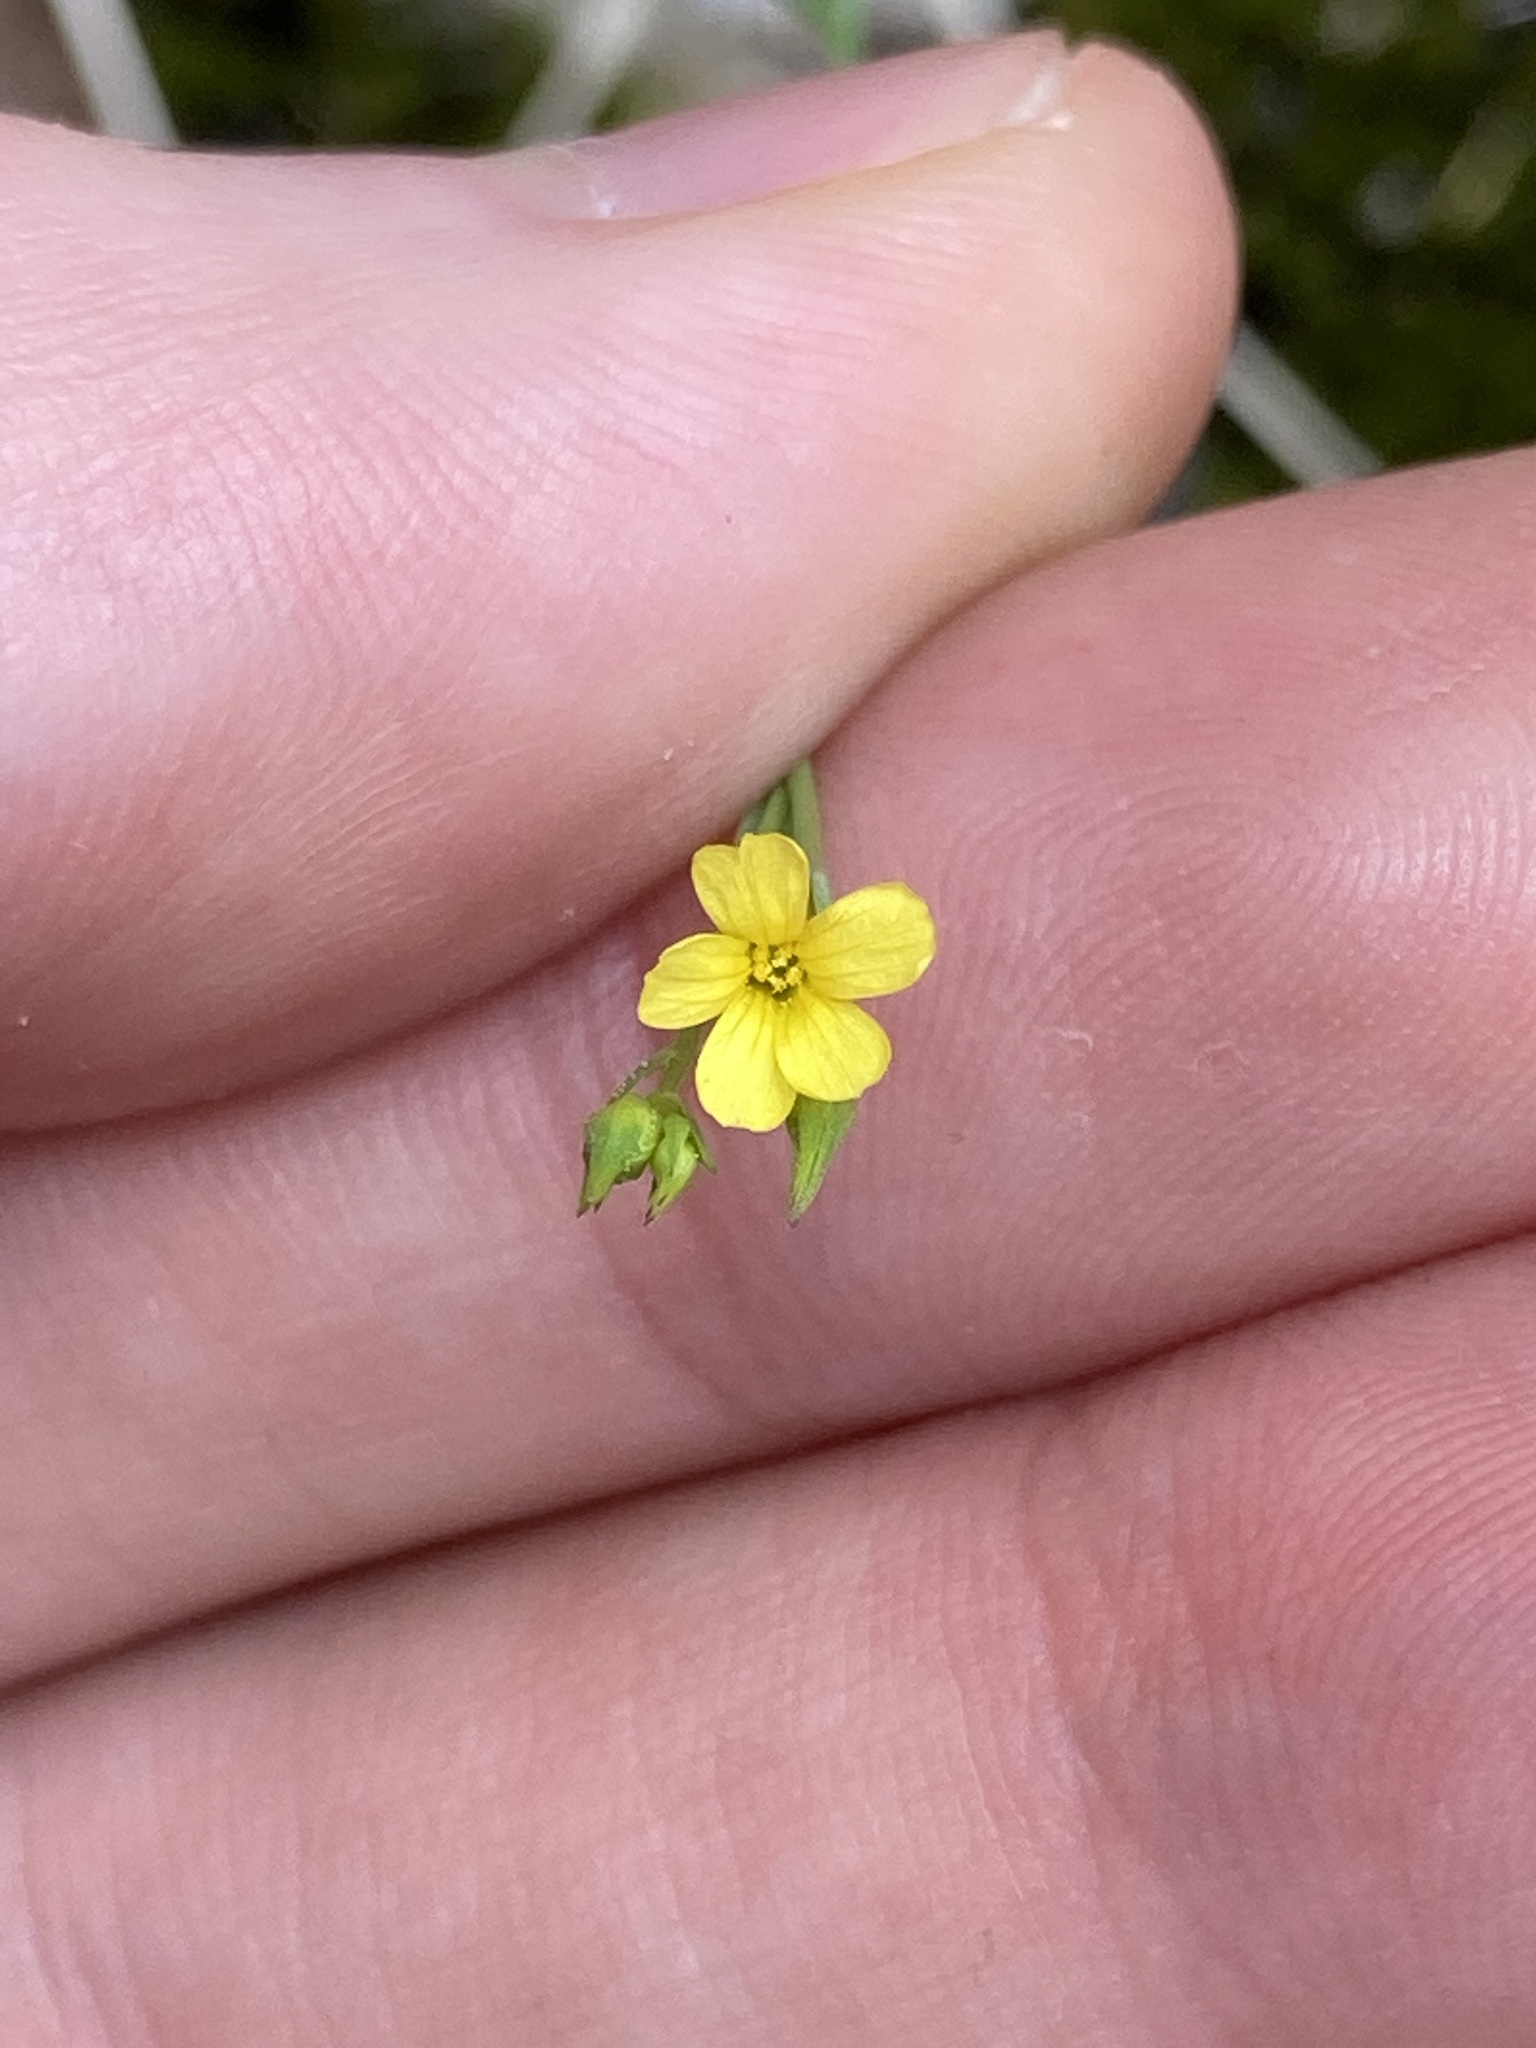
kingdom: Plantae
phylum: Tracheophyta
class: Magnoliopsida
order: Malpighiales
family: Linaceae
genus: Linum
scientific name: Linum trigynum
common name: French flax
